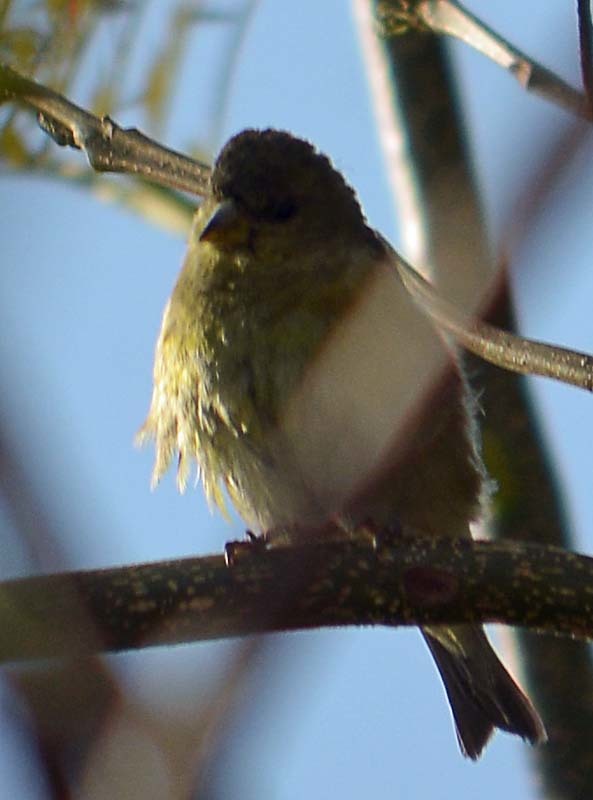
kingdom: Animalia
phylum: Chordata
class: Aves
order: Passeriformes
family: Fringillidae
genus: Spinus
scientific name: Spinus psaltria
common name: Lesser goldfinch
